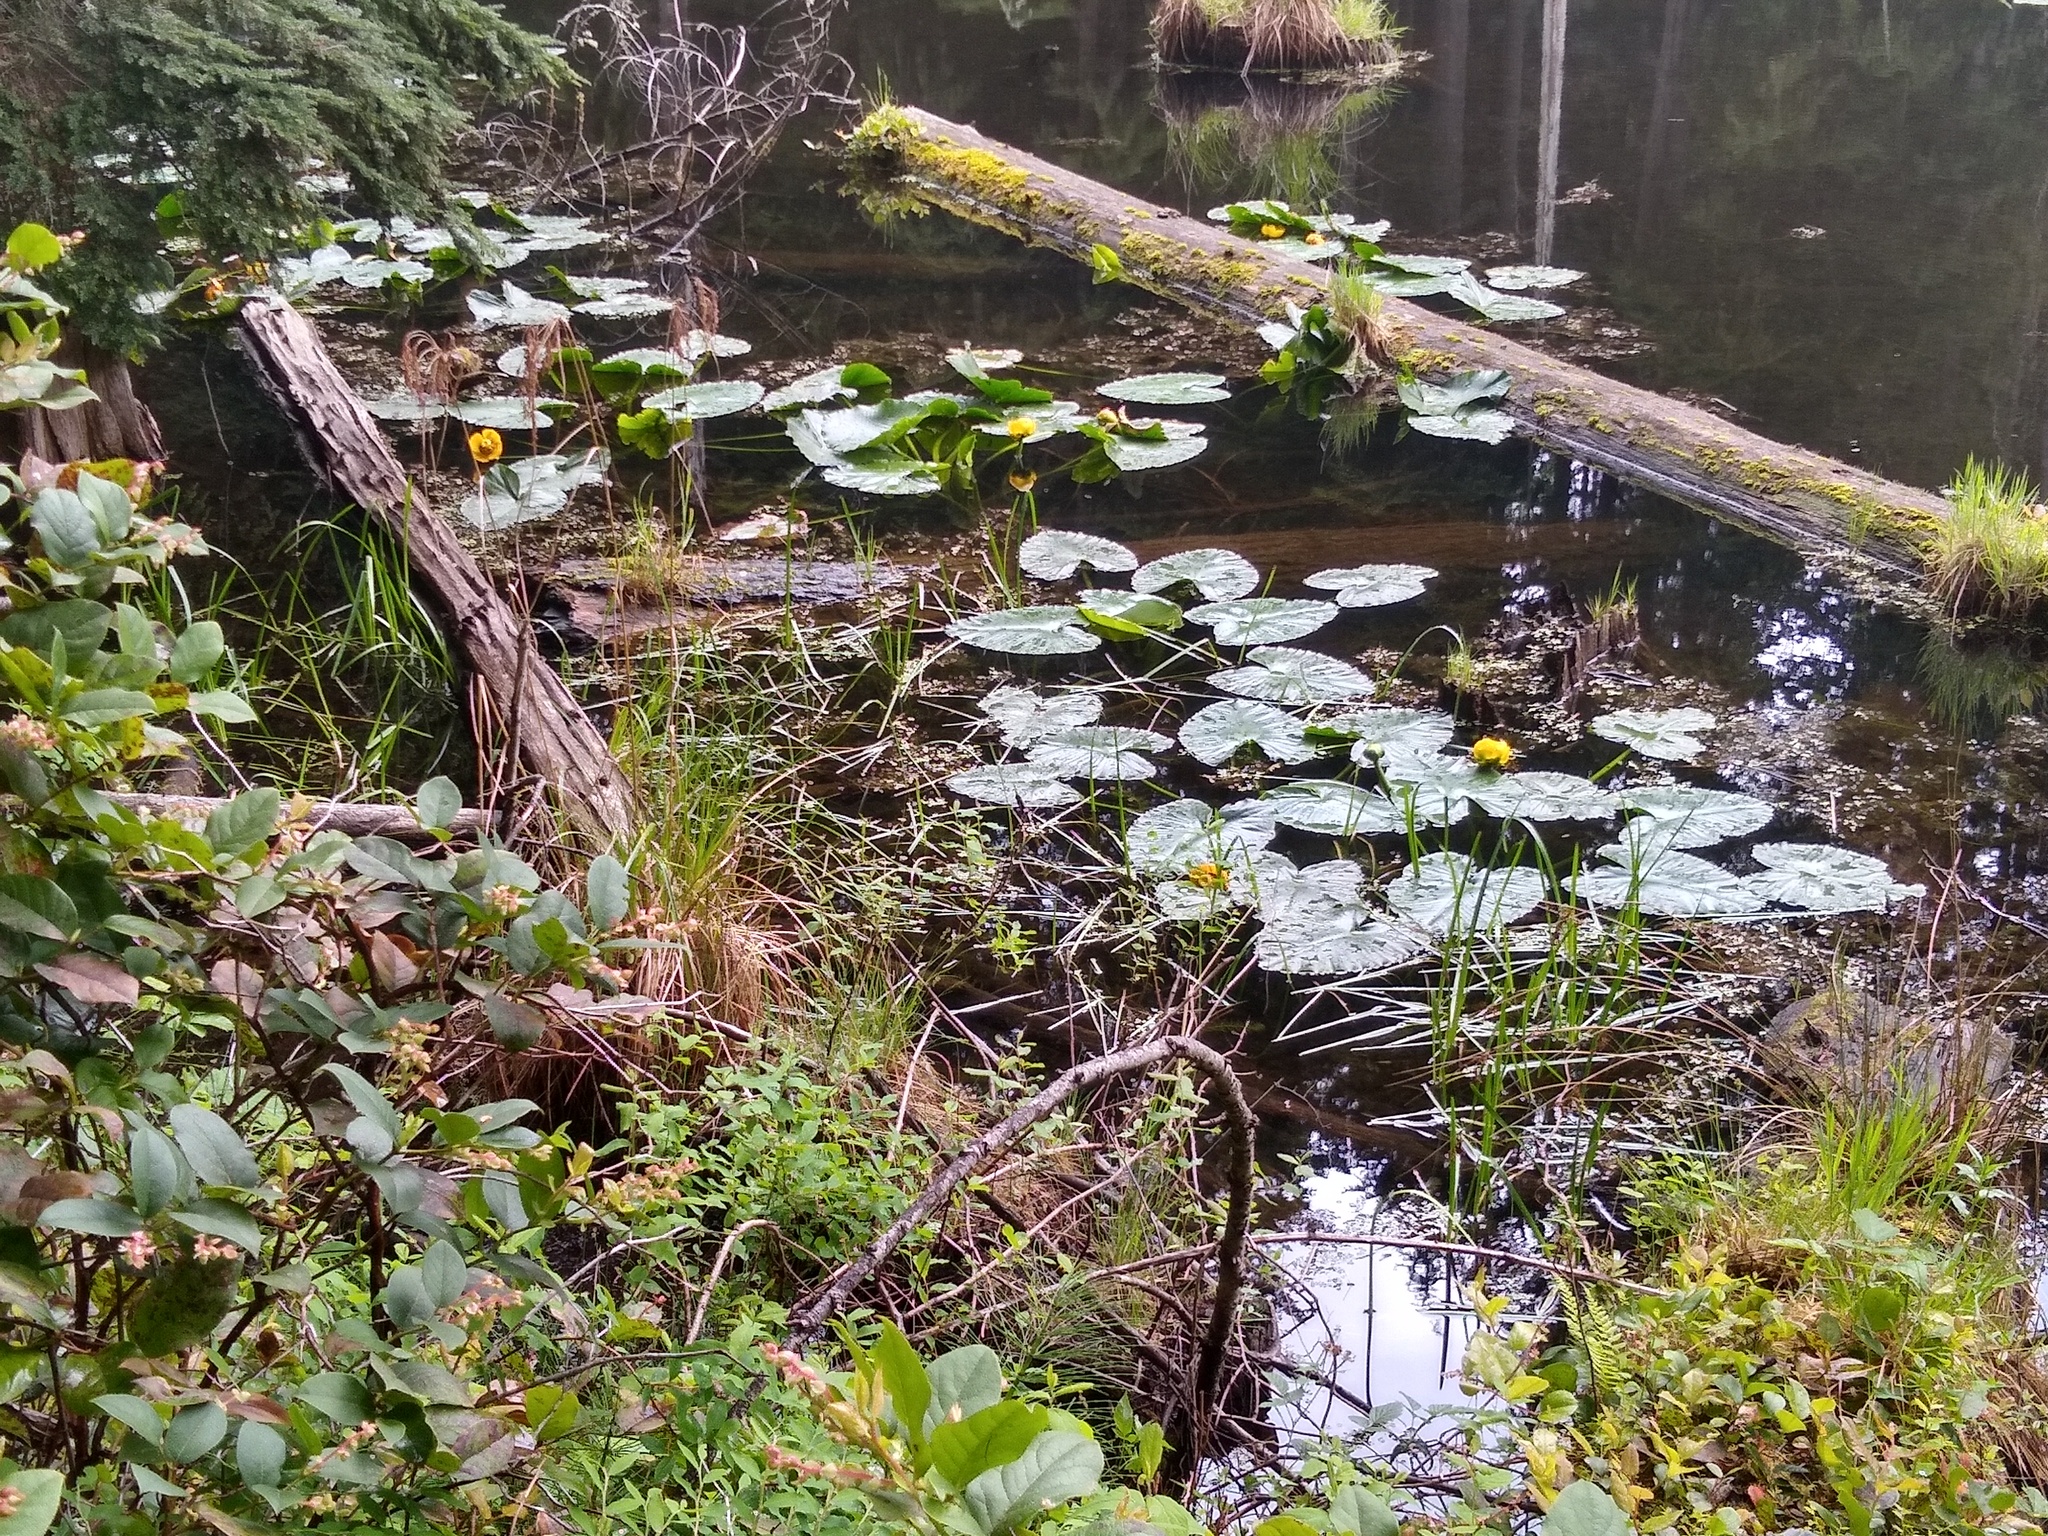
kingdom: Plantae
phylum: Tracheophyta
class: Magnoliopsida
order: Nymphaeales
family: Nymphaeaceae
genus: Nuphar
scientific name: Nuphar polysepala
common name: Rocky mountain cow-lily
